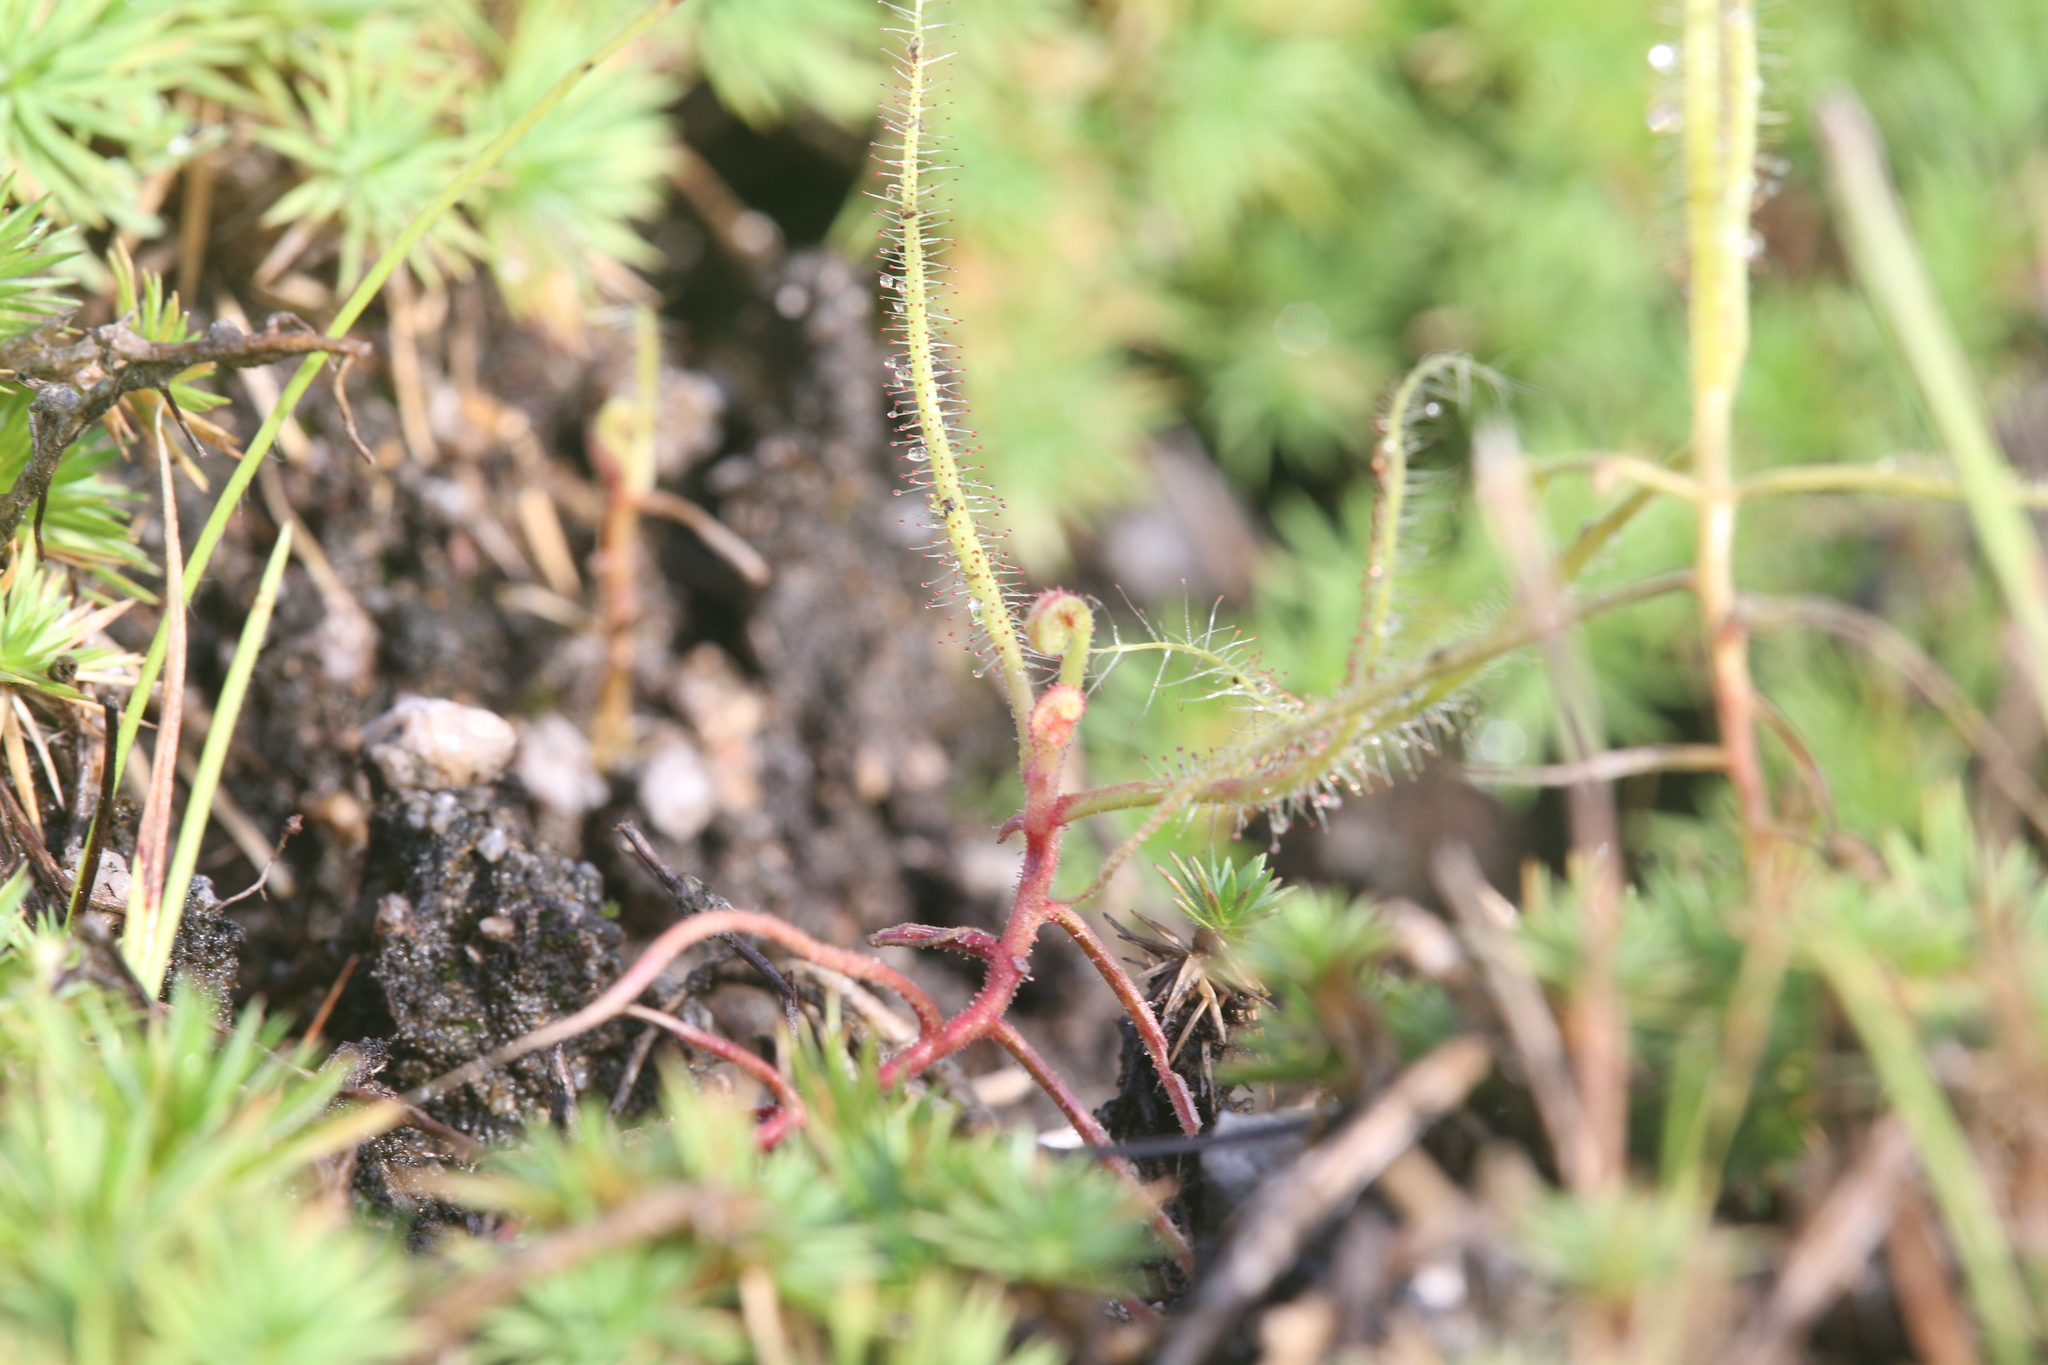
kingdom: Plantae
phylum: Tracheophyta
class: Magnoliopsida
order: Caryophyllales
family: Droseraceae
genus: Drosera
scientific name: Drosera indica
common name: Indian sundew
